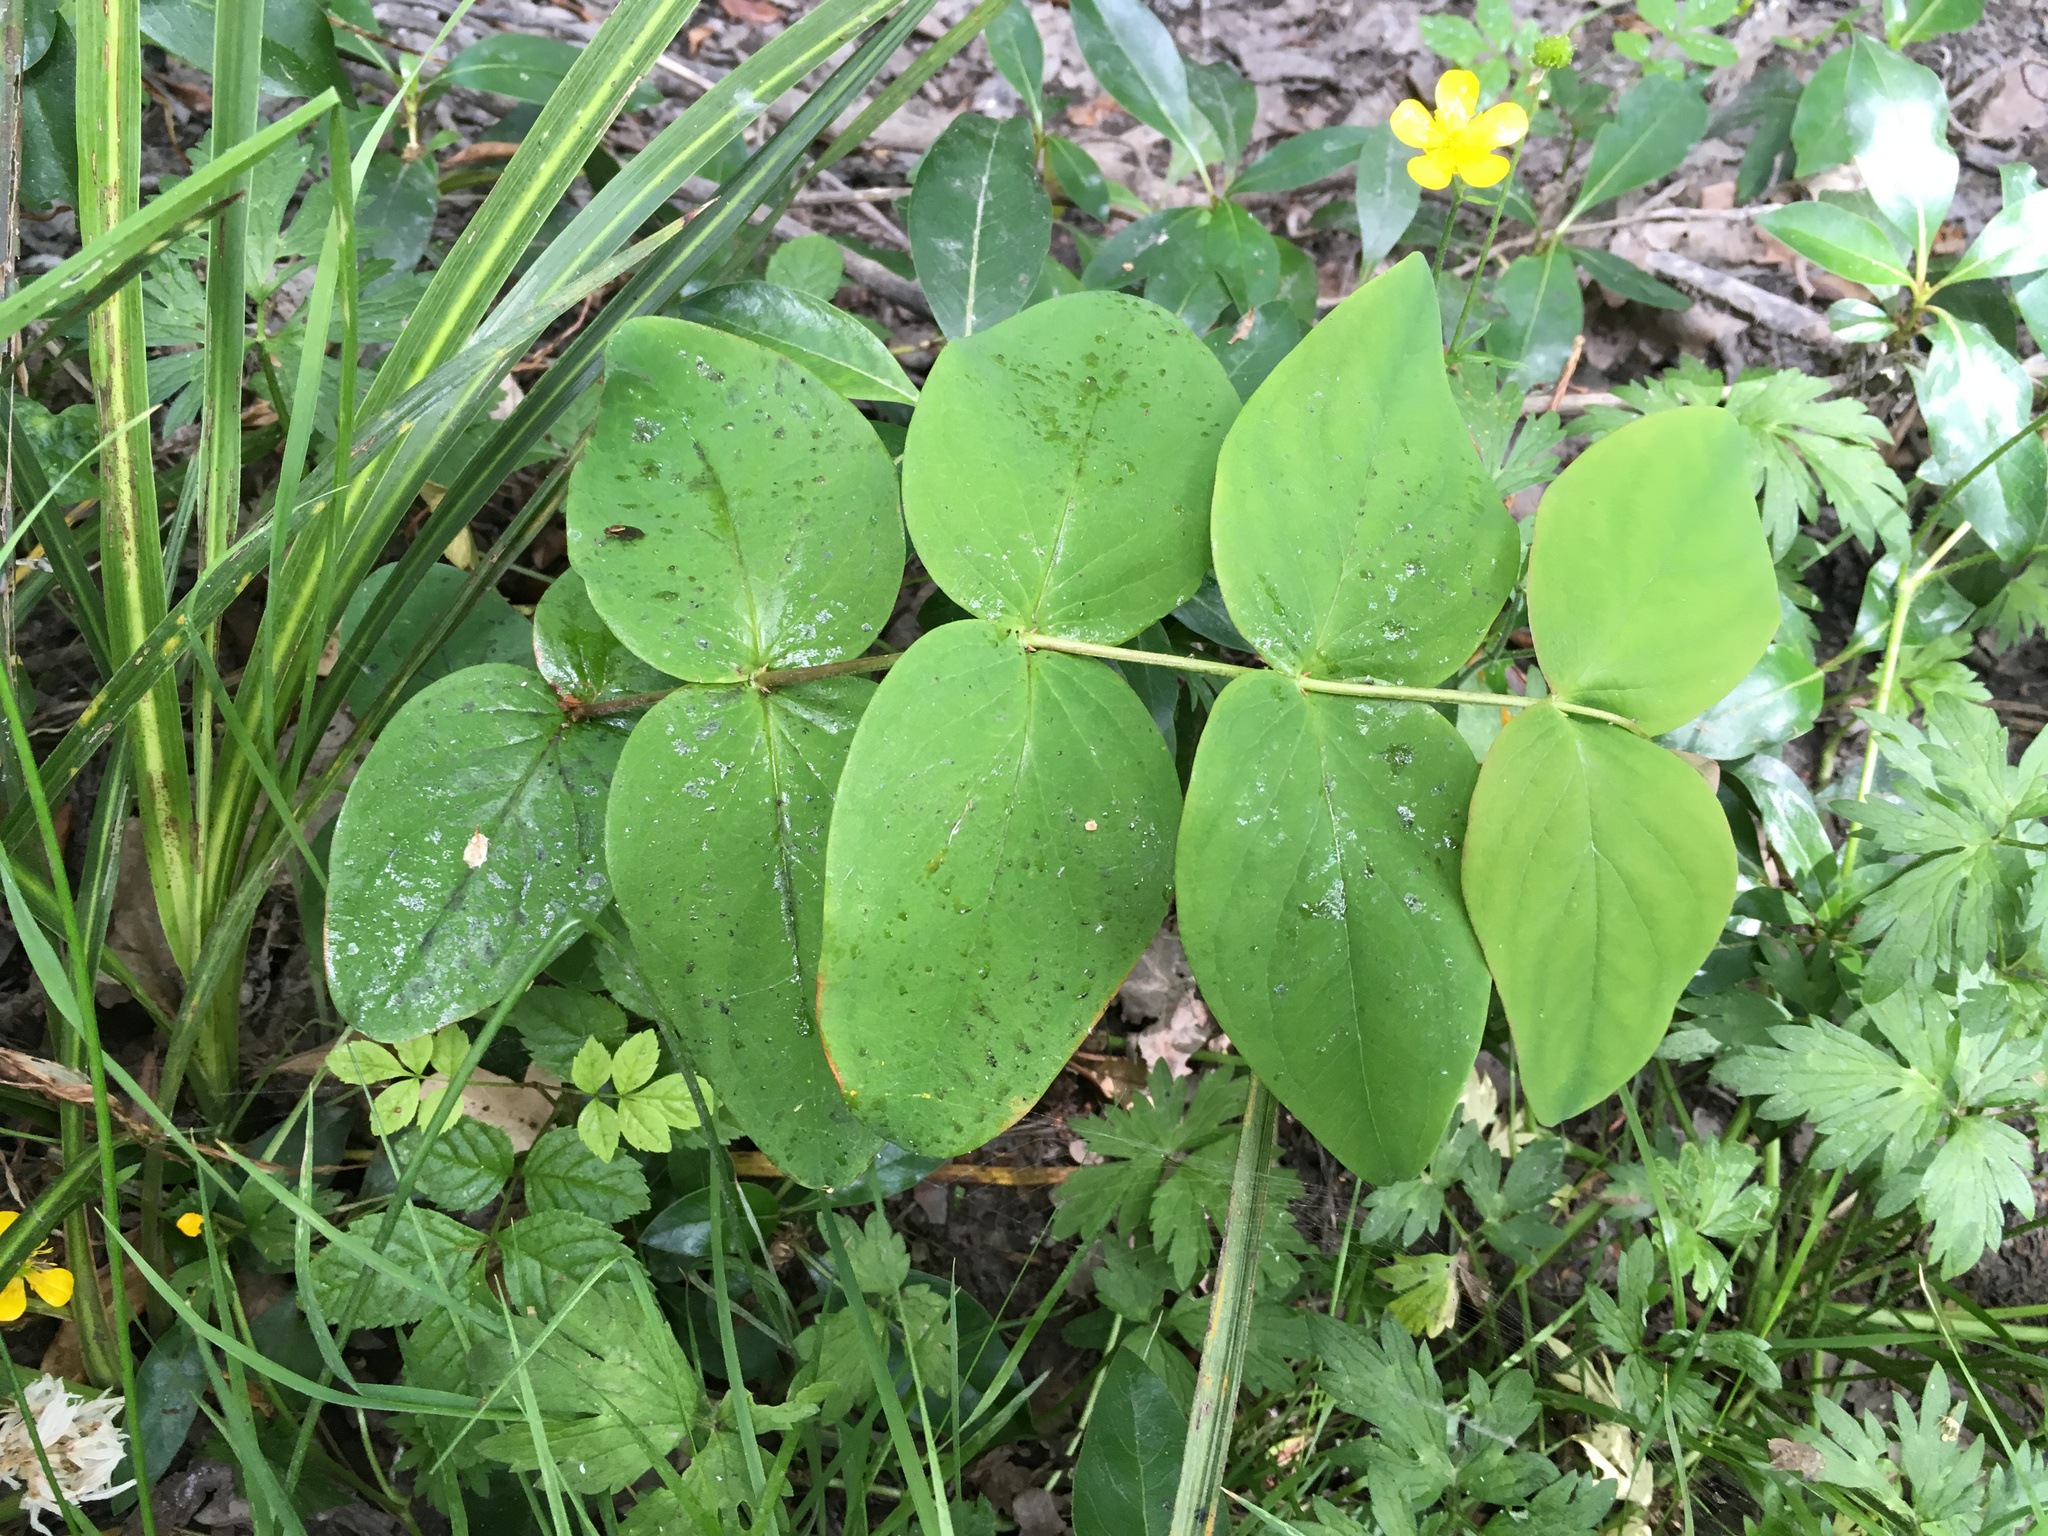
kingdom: Plantae
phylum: Tracheophyta
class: Magnoliopsida
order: Malpighiales
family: Hypericaceae
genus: Hypericum
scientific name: Hypericum androsaemum
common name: Sweet-amber
